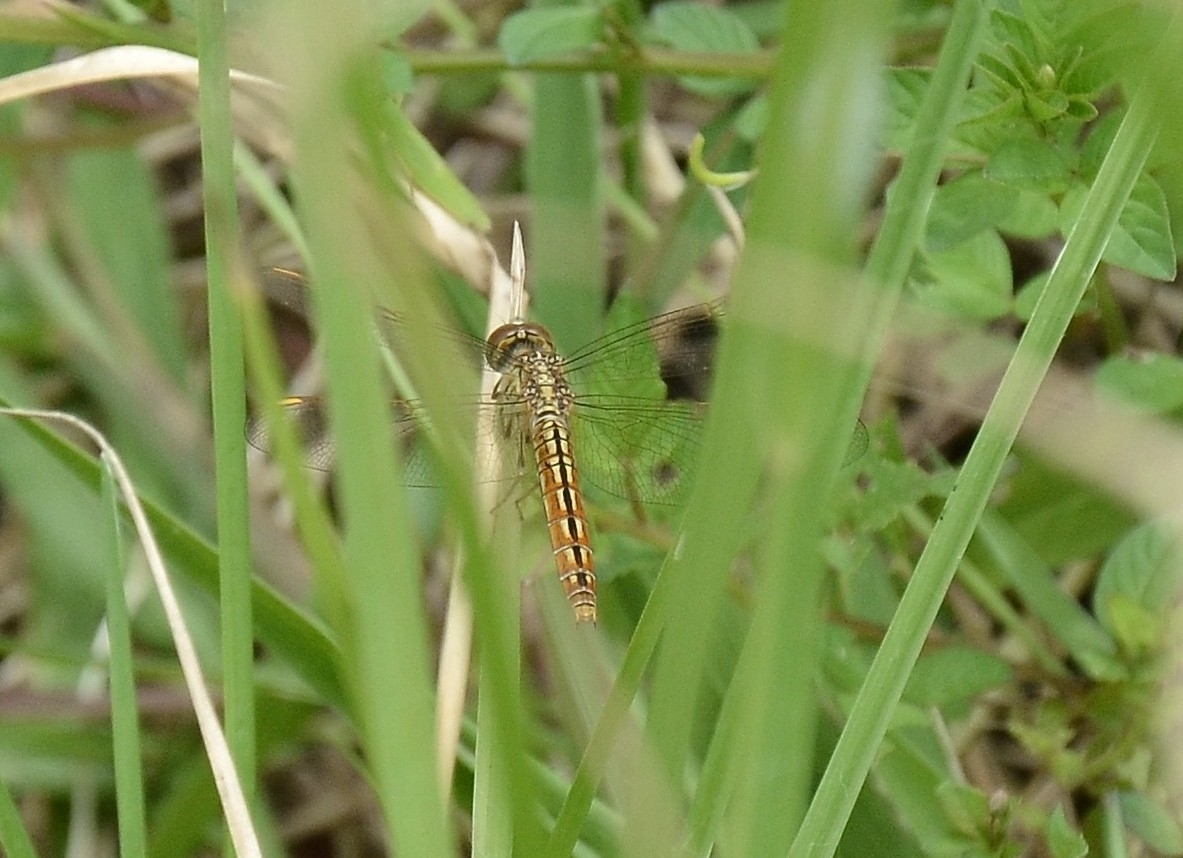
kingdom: Animalia
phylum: Arthropoda
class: Insecta
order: Odonata
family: Libellulidae
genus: Brachythemis
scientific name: Brachythemis contaminata
